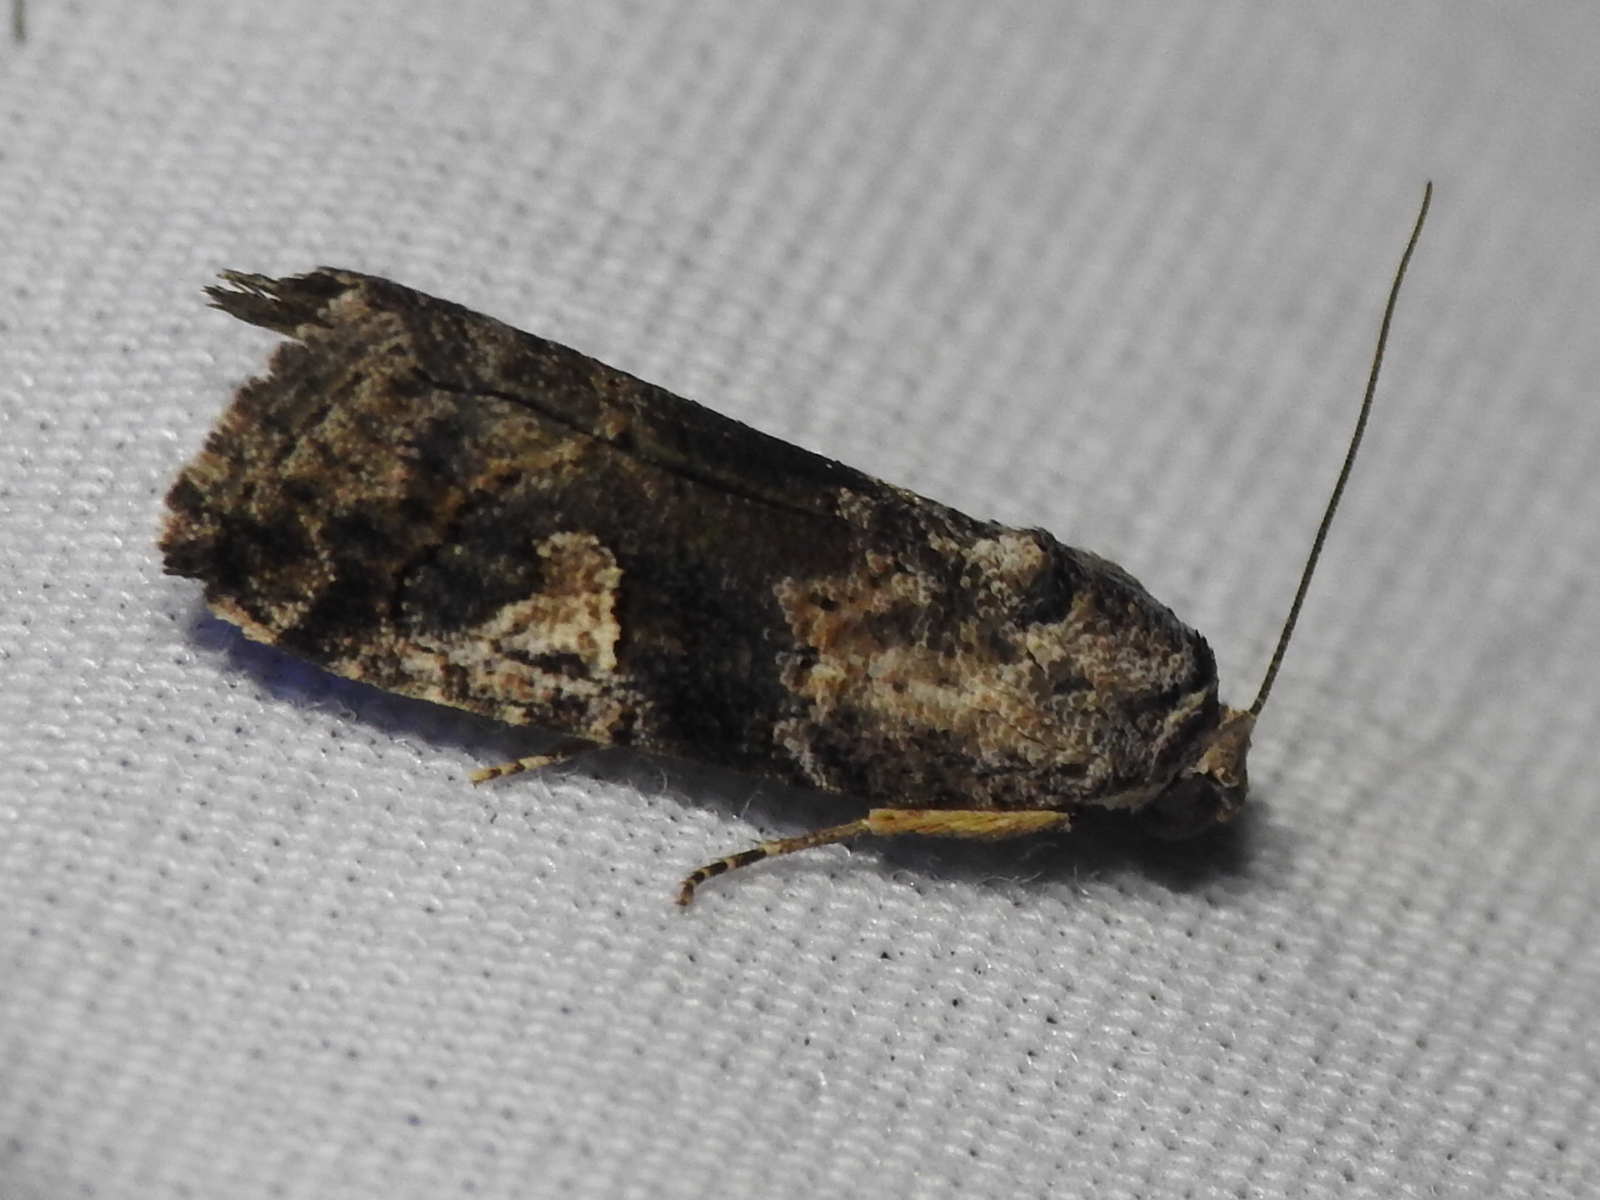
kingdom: Animalia
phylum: Arthropoda
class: Insecta
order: Lepidoptera
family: Noctuidae
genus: Metaponpneumata
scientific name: Metaponpneumata rogenhoferi
